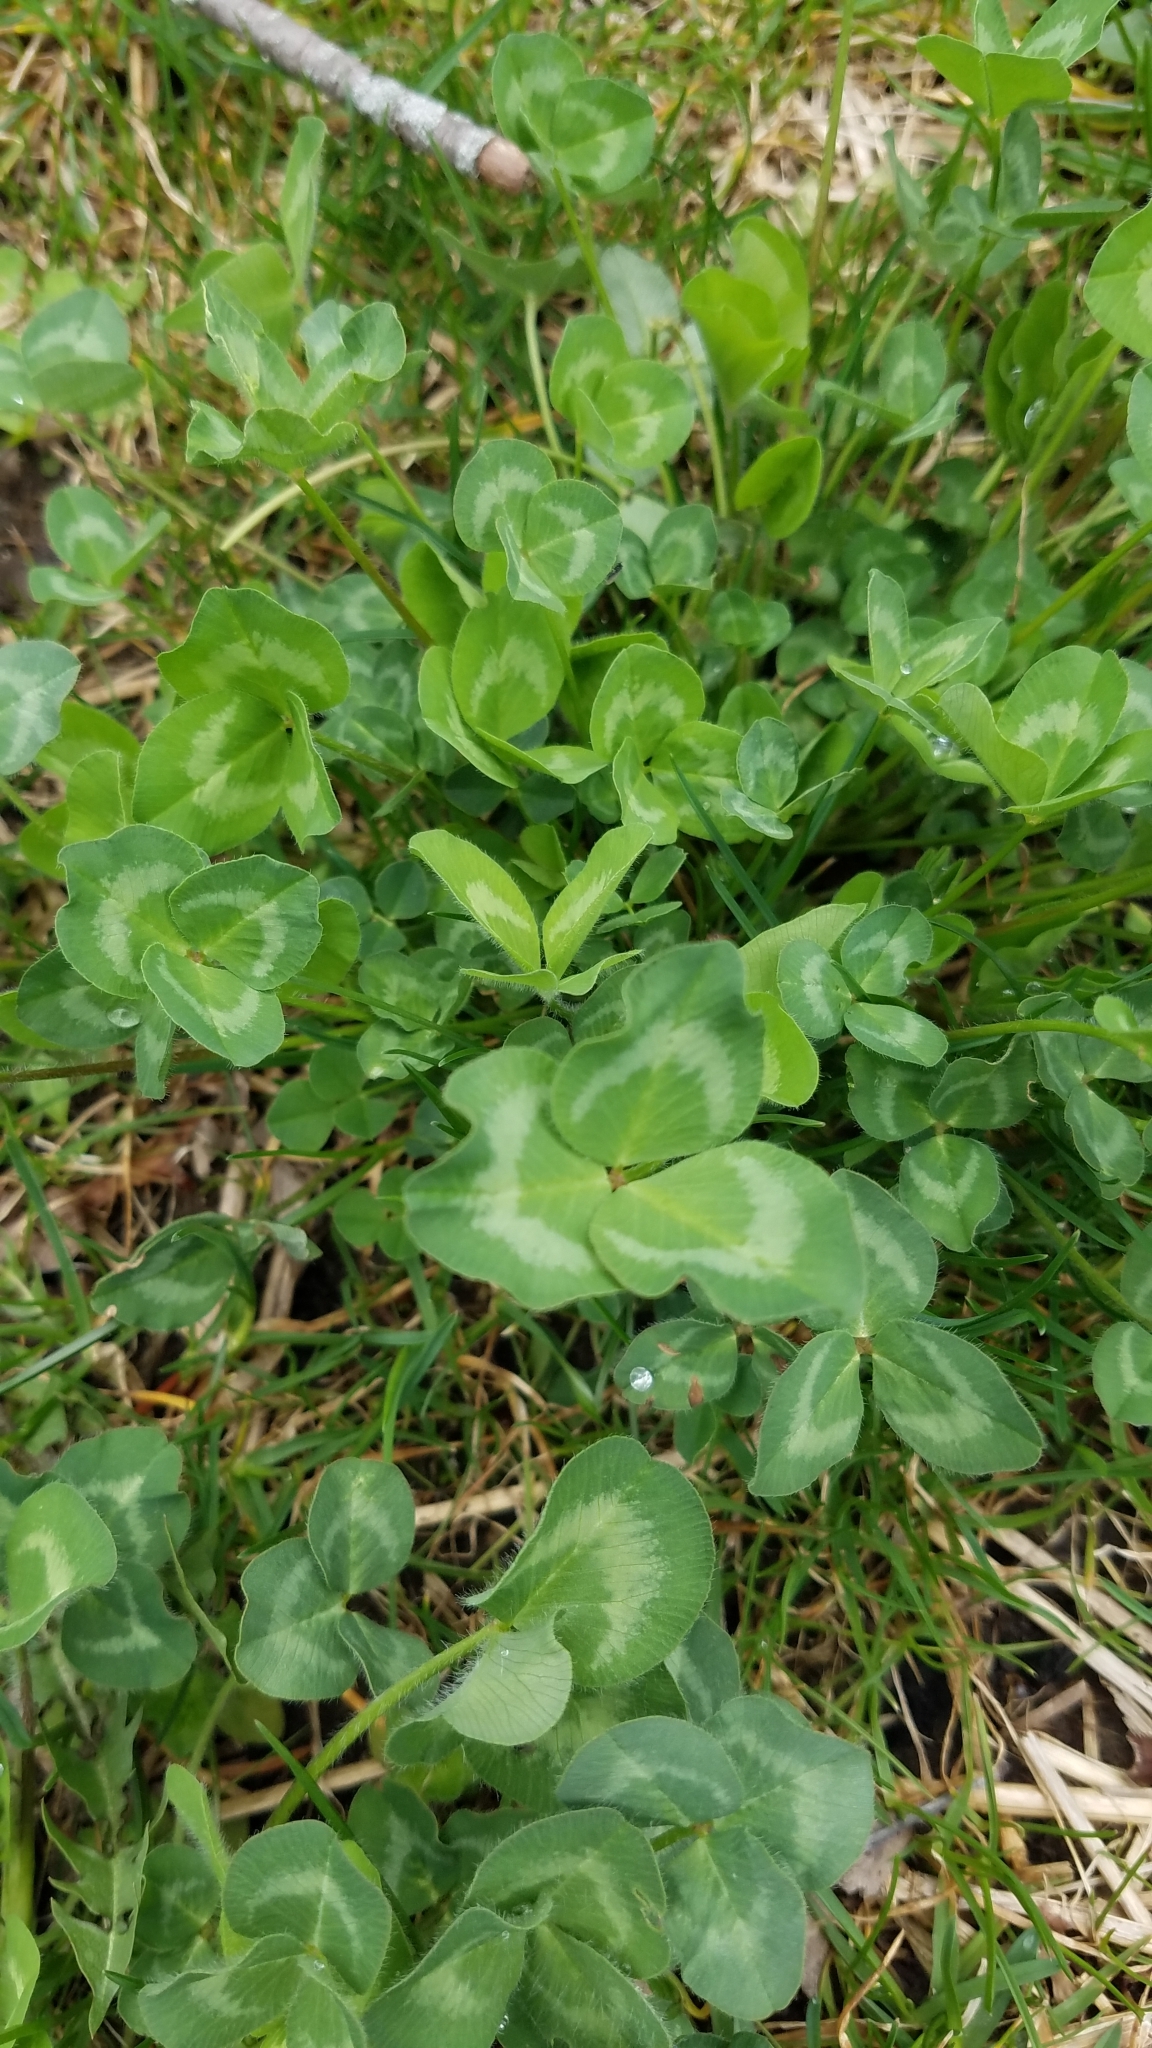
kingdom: Plantae
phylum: Tracheophyta
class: Magnoliopsida
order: Fabales
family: Fabaceae
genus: Trifolium
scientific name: Trifolium pratense
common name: Red clover
